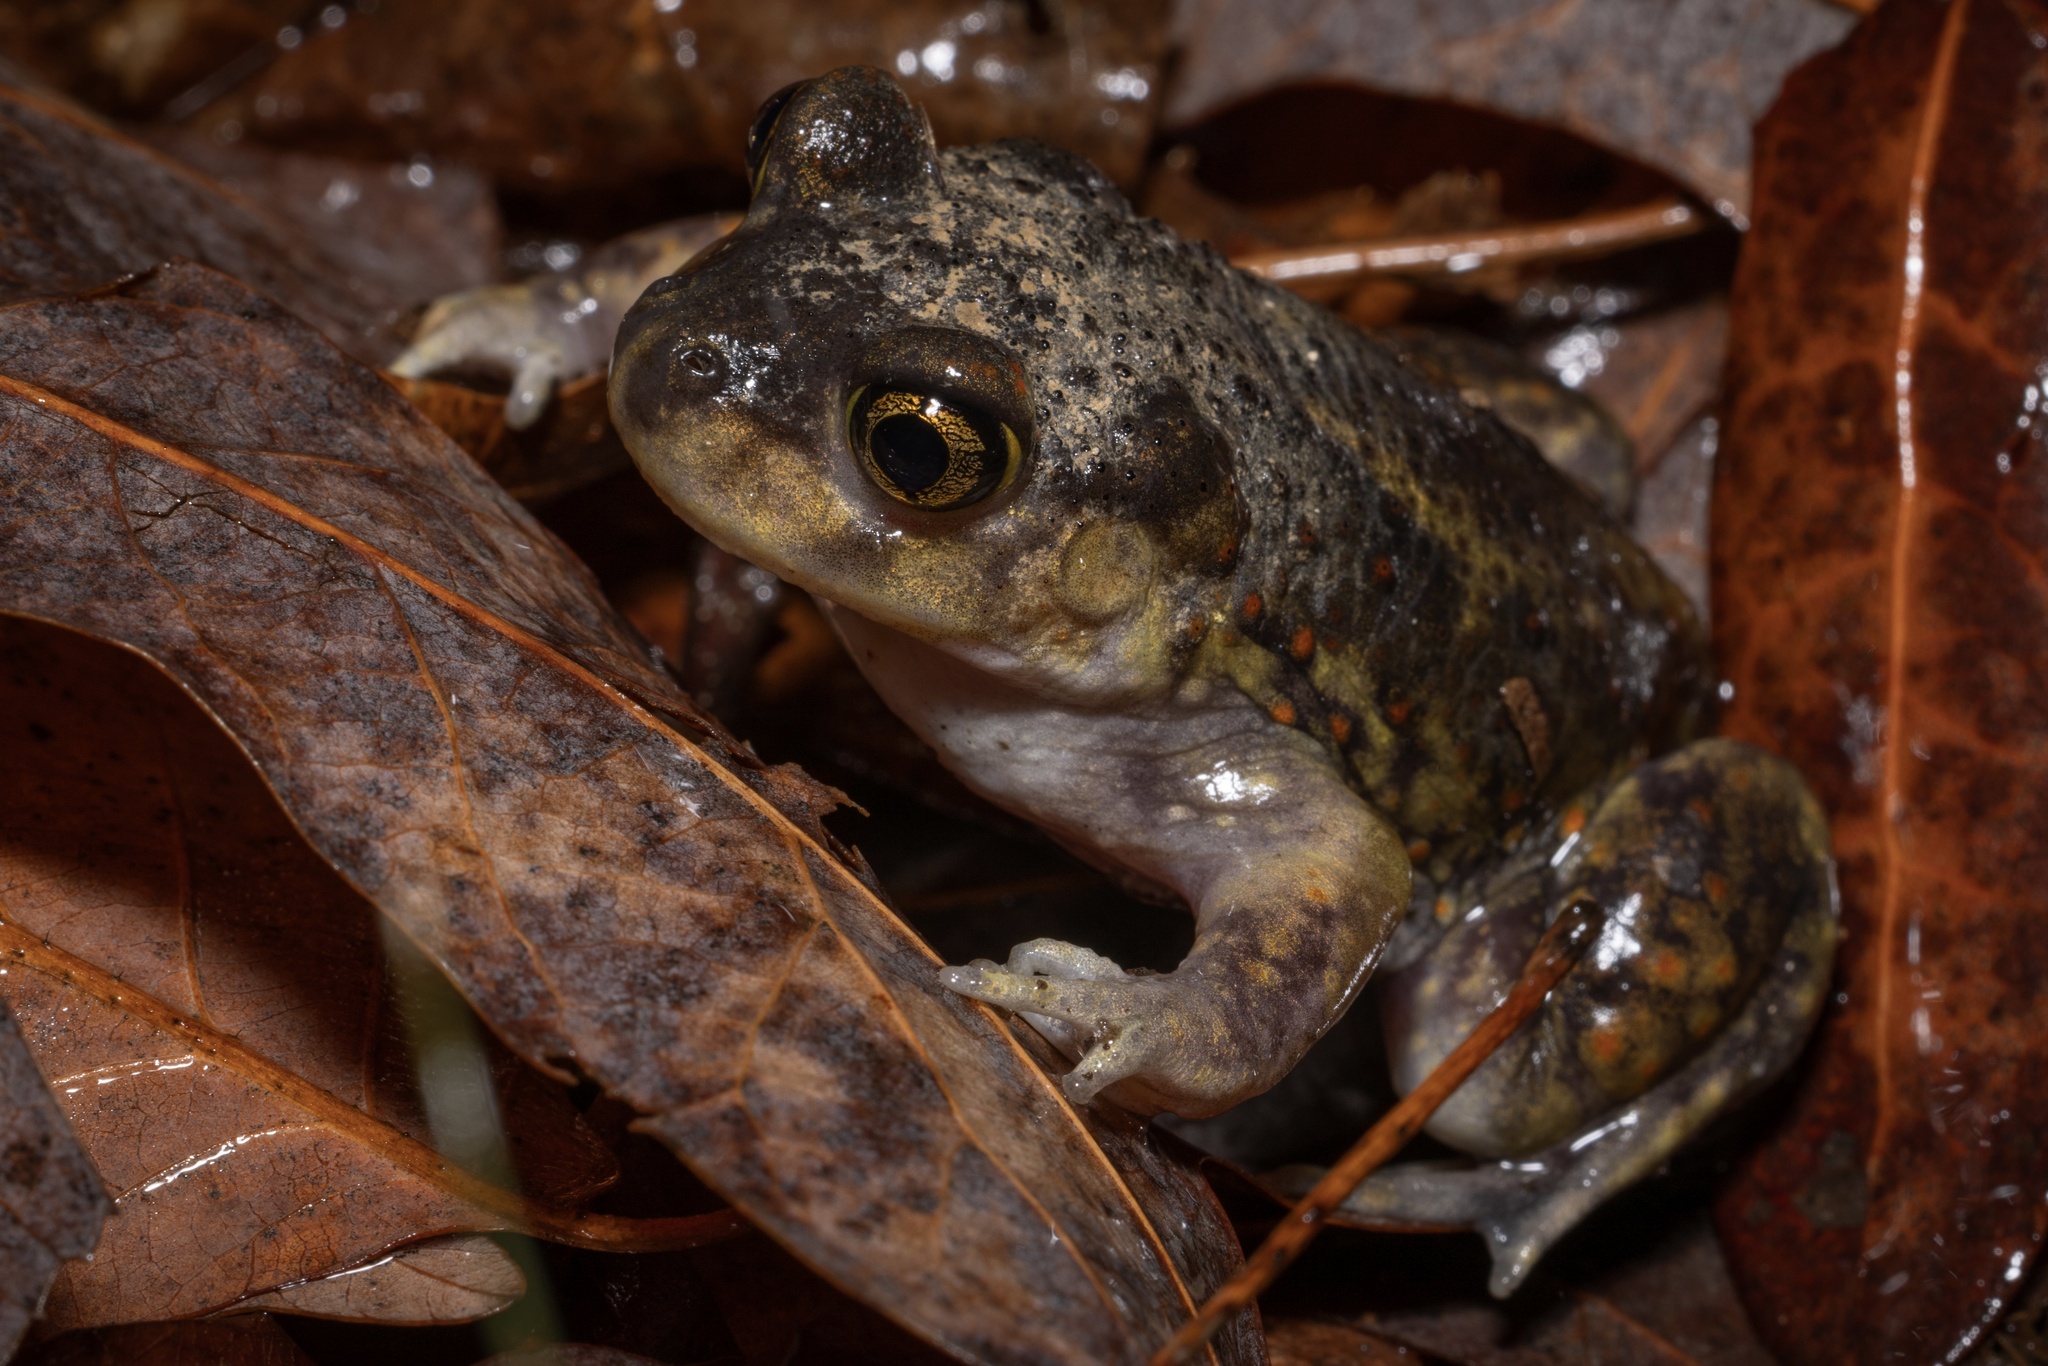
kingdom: Animalia
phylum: Chordata
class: Amphibia
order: Anura
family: Scaphiopodidae
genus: Scaphiopus
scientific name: Scaphiopus holbrookii
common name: Eastern spadefoot toad
